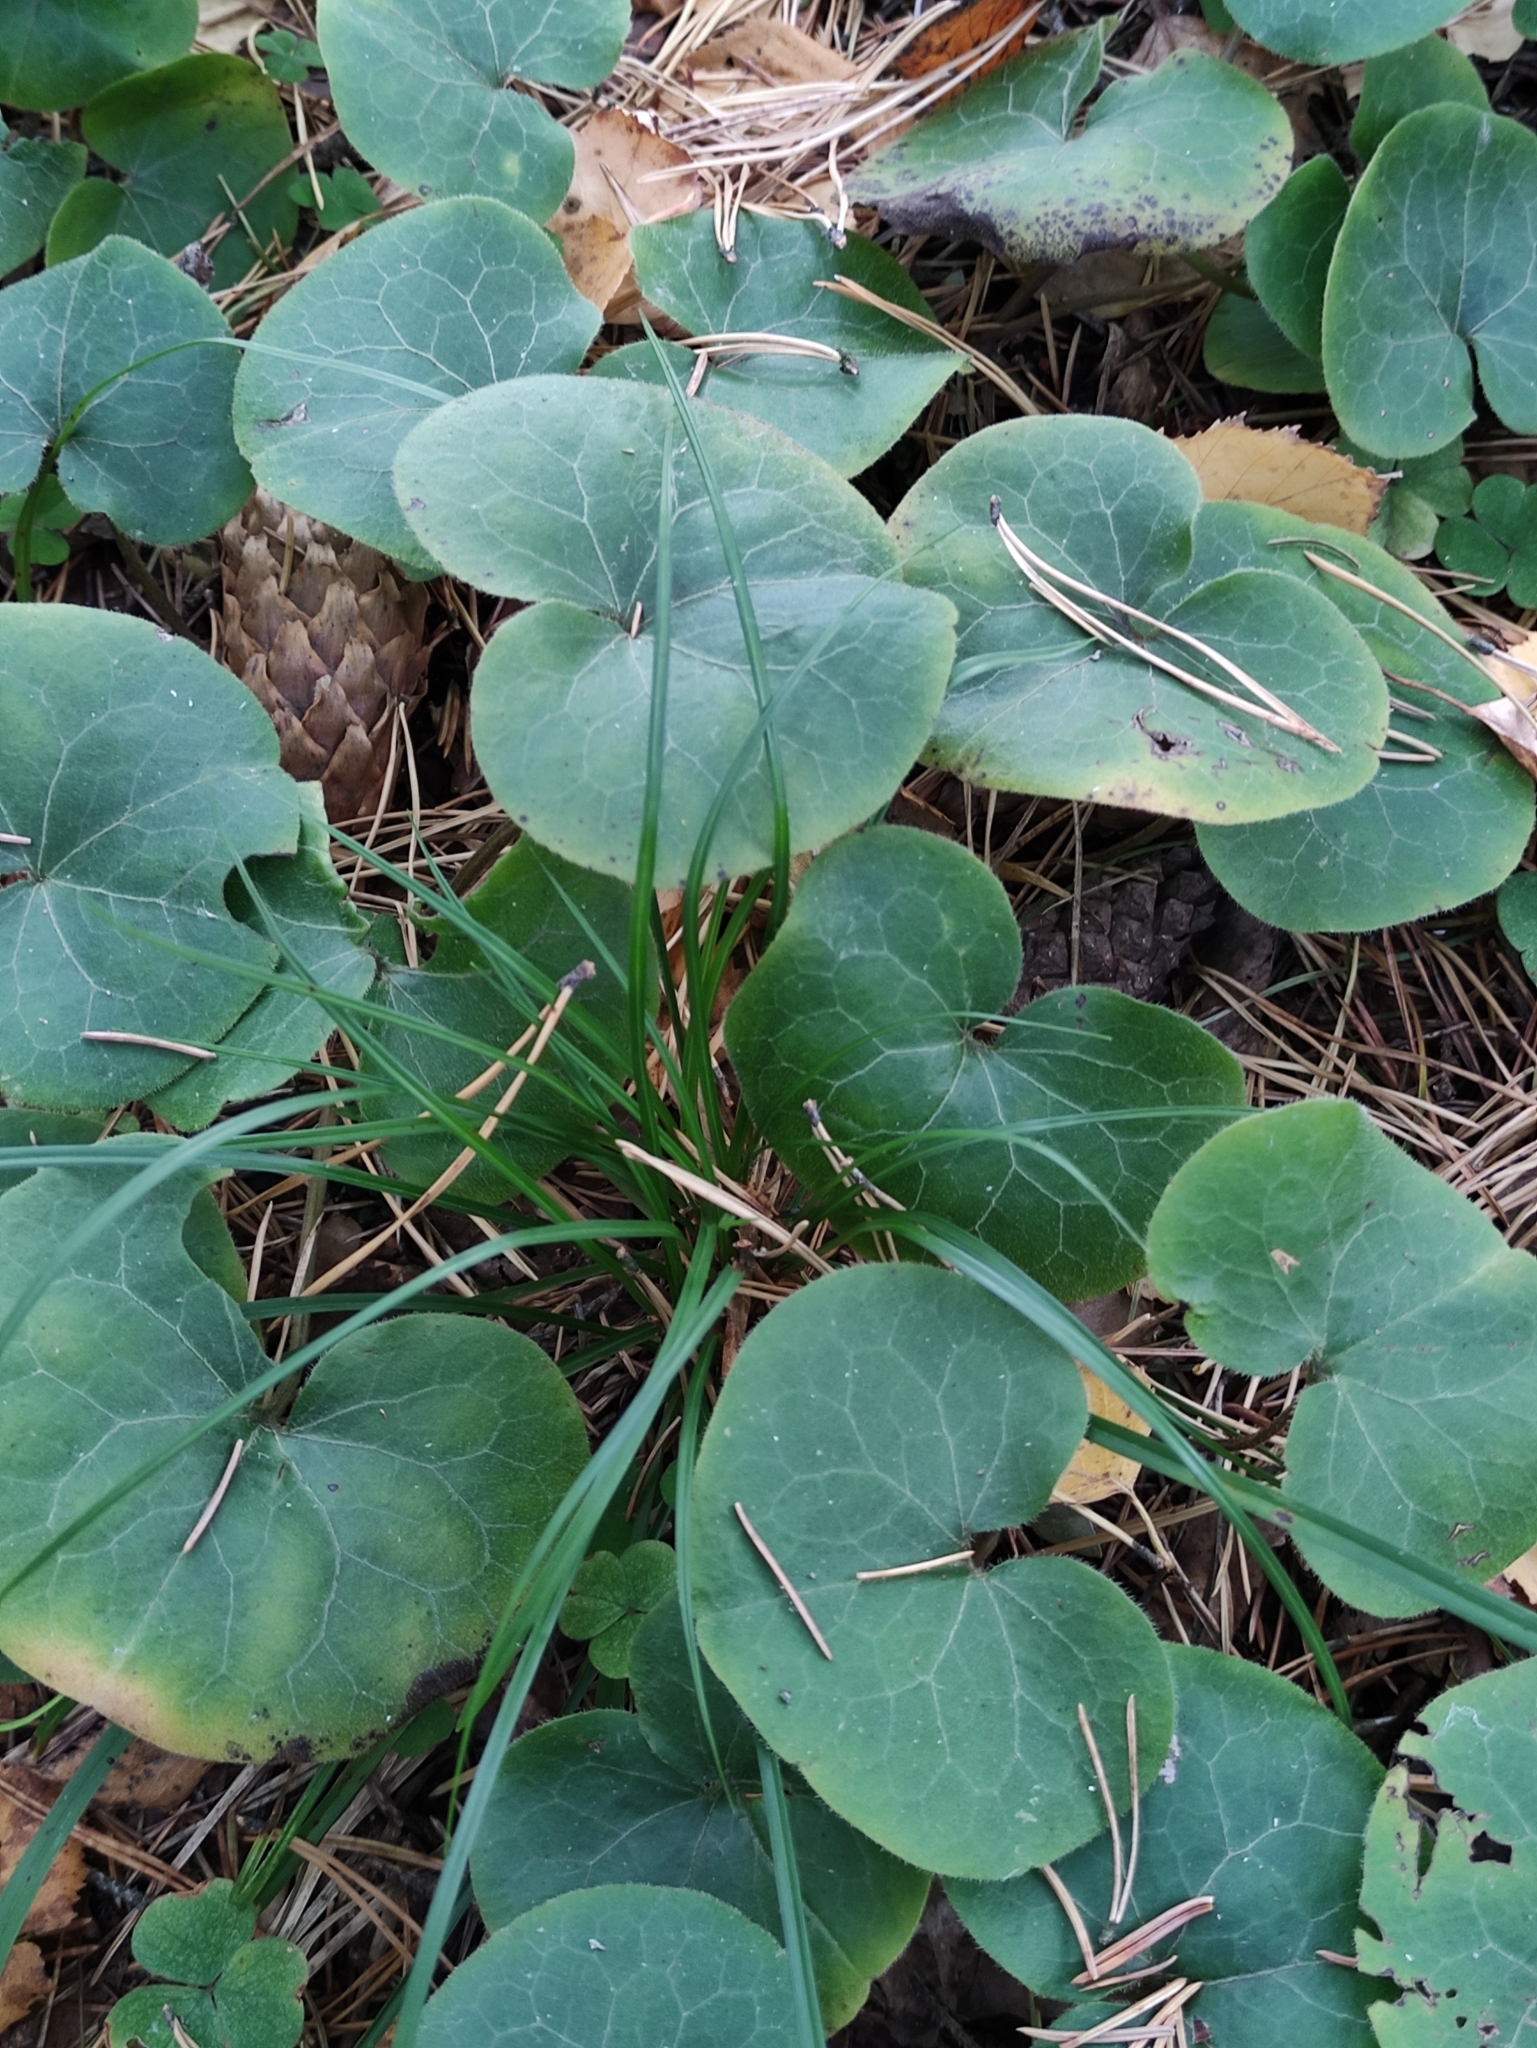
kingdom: Plantae
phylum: Tracheophyta
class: Magnoliopsida
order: Piperales
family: Aristolochiaceae
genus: Asarum
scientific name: Asarum europaeum
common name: Asarabacca
